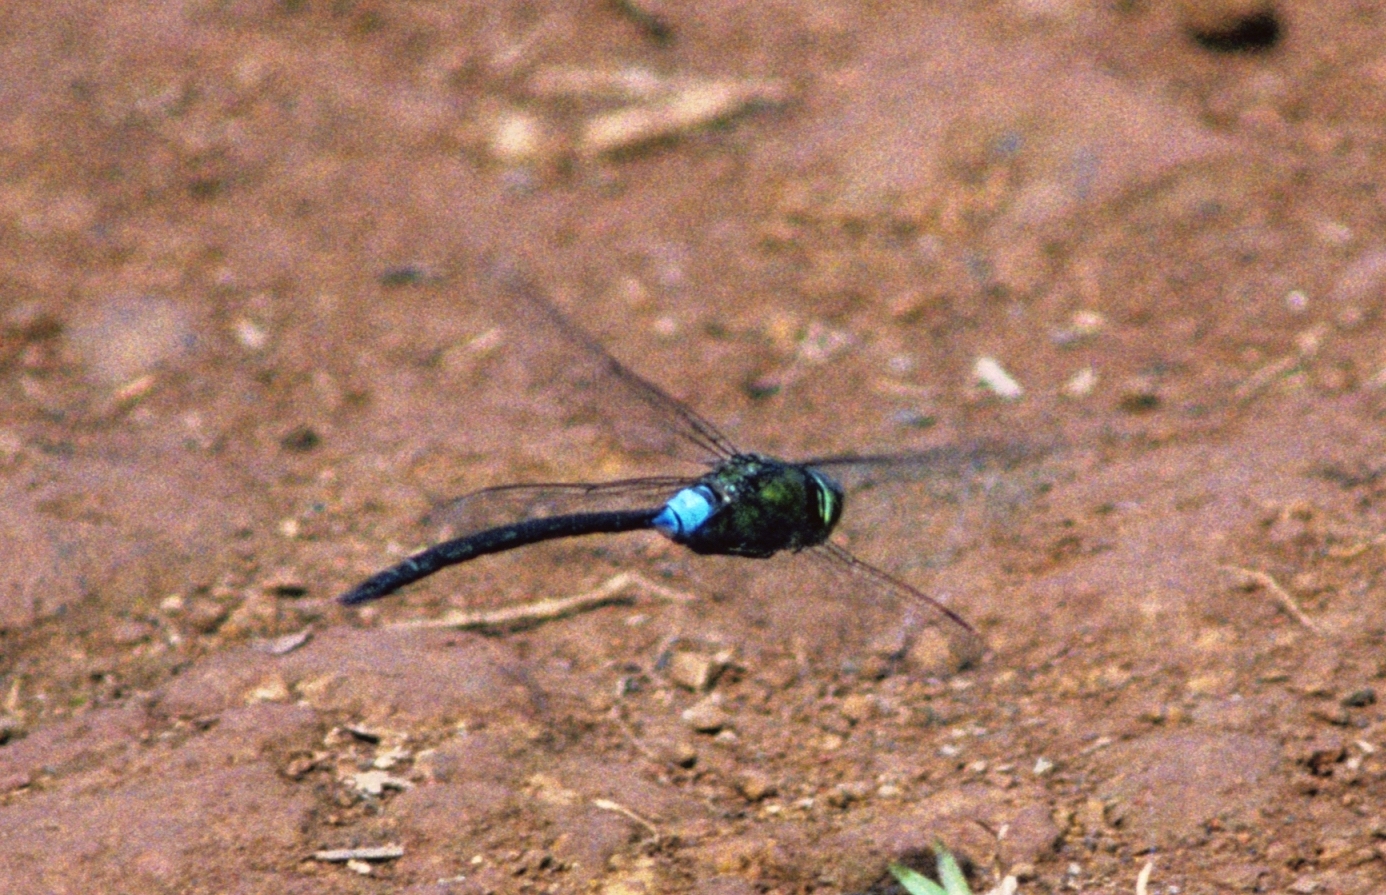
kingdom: Animalia
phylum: Arthropoda
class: Insecta
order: Odonata
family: Aeshnidae
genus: Anax
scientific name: Anax strenuus
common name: Giant hawaiian darner
